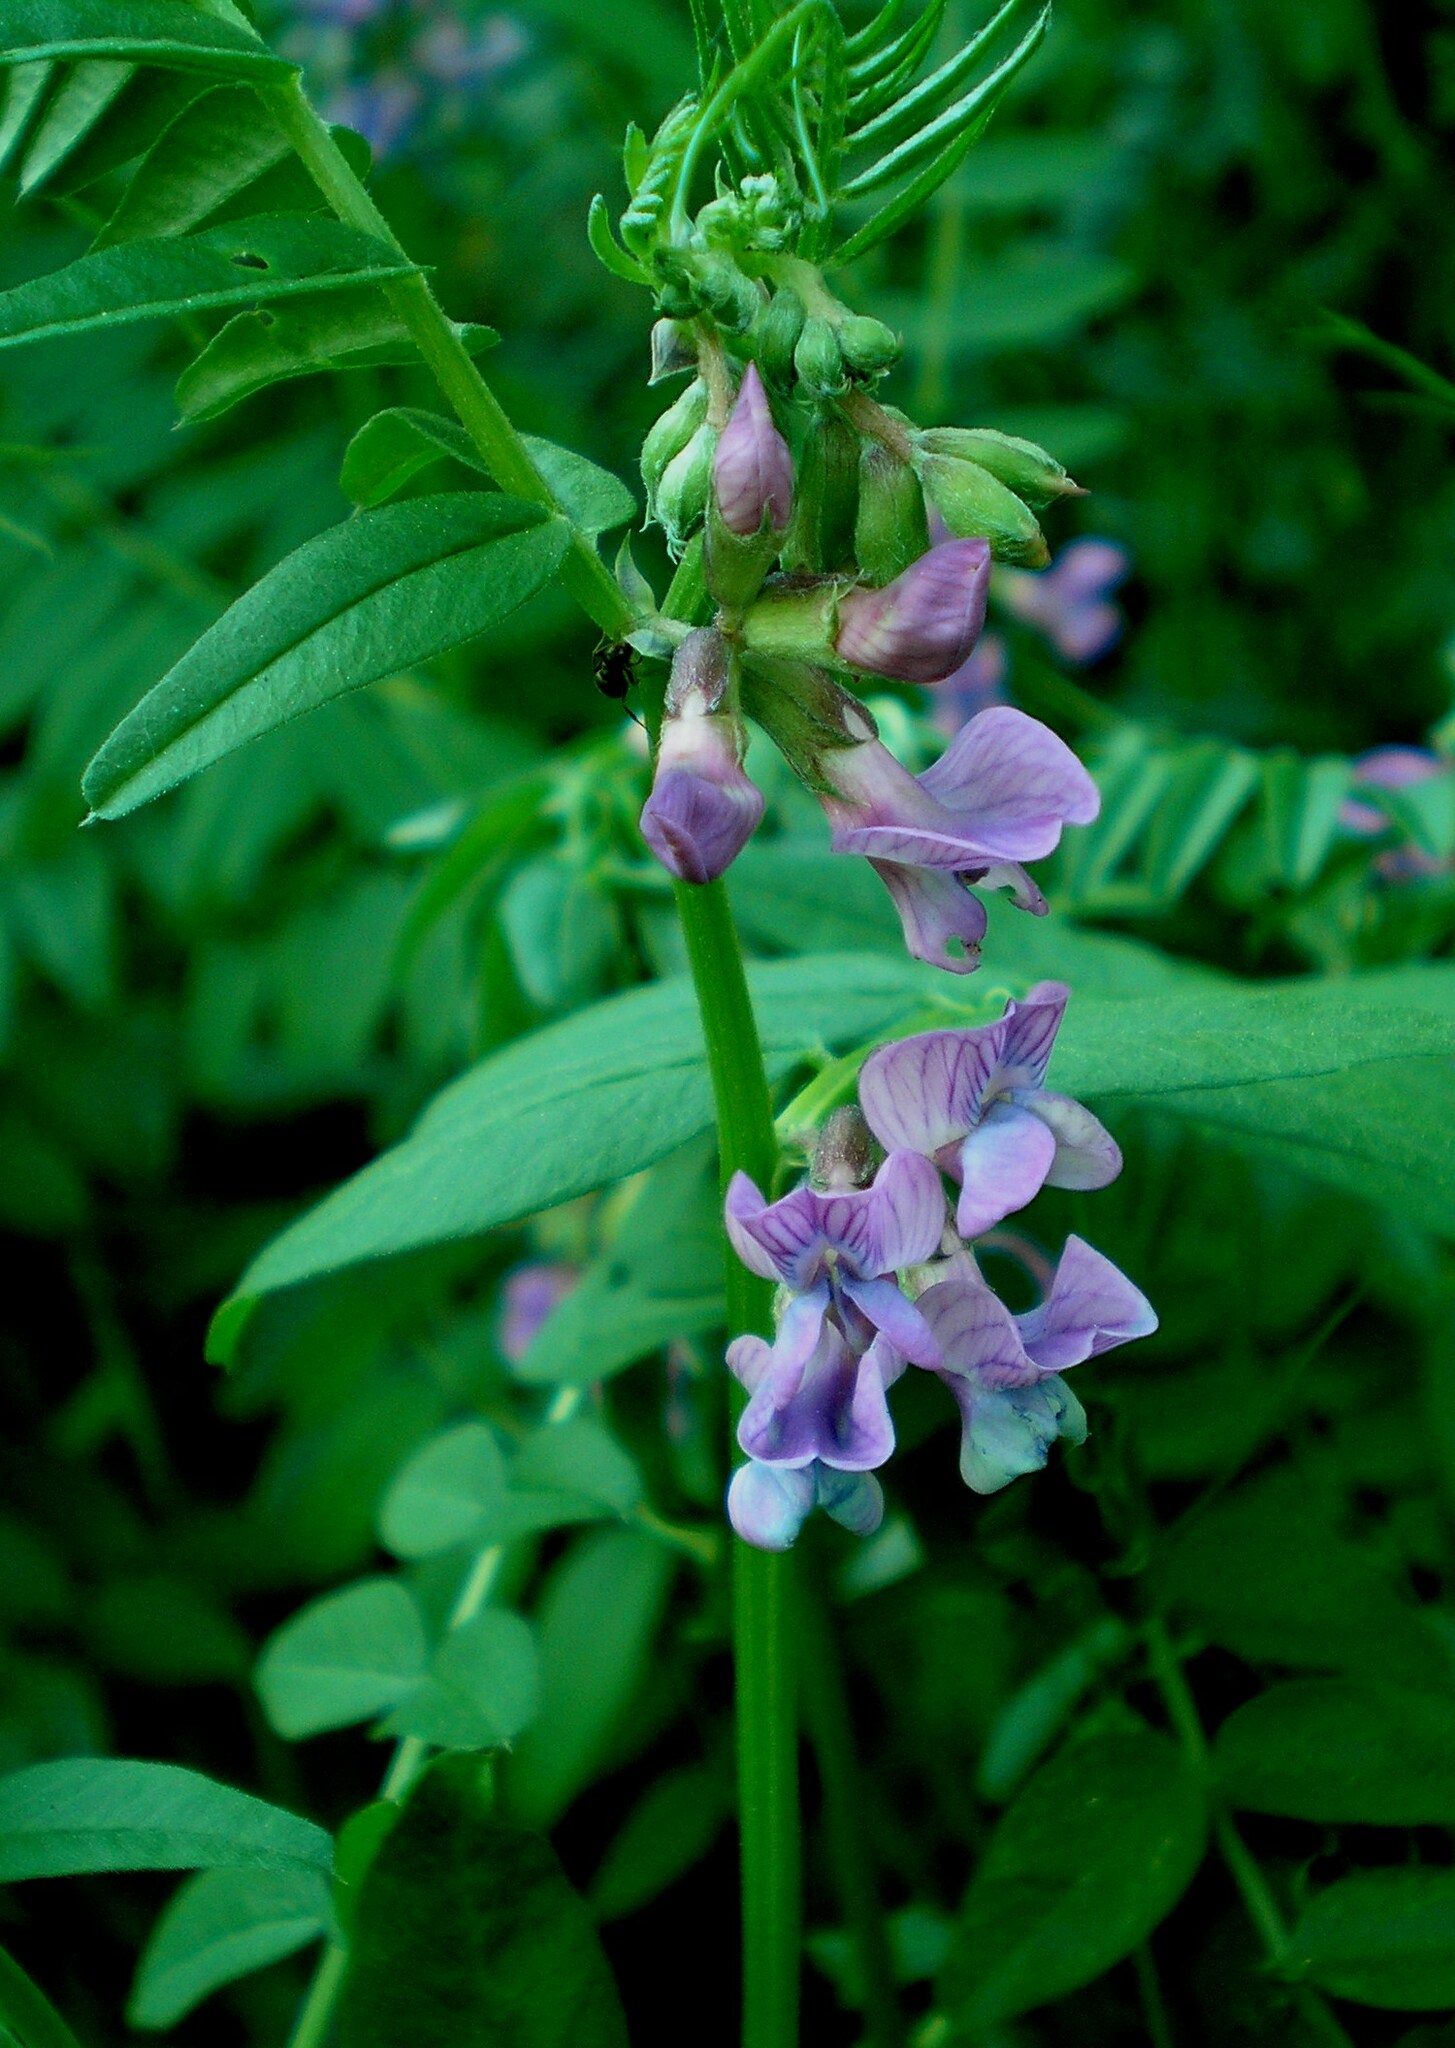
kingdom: Plantae
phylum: Tracheophyta
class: Magnoliopsida
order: Fabales
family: Fabaceae
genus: Vicia
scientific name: Vicia sepium
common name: Bush vetch
